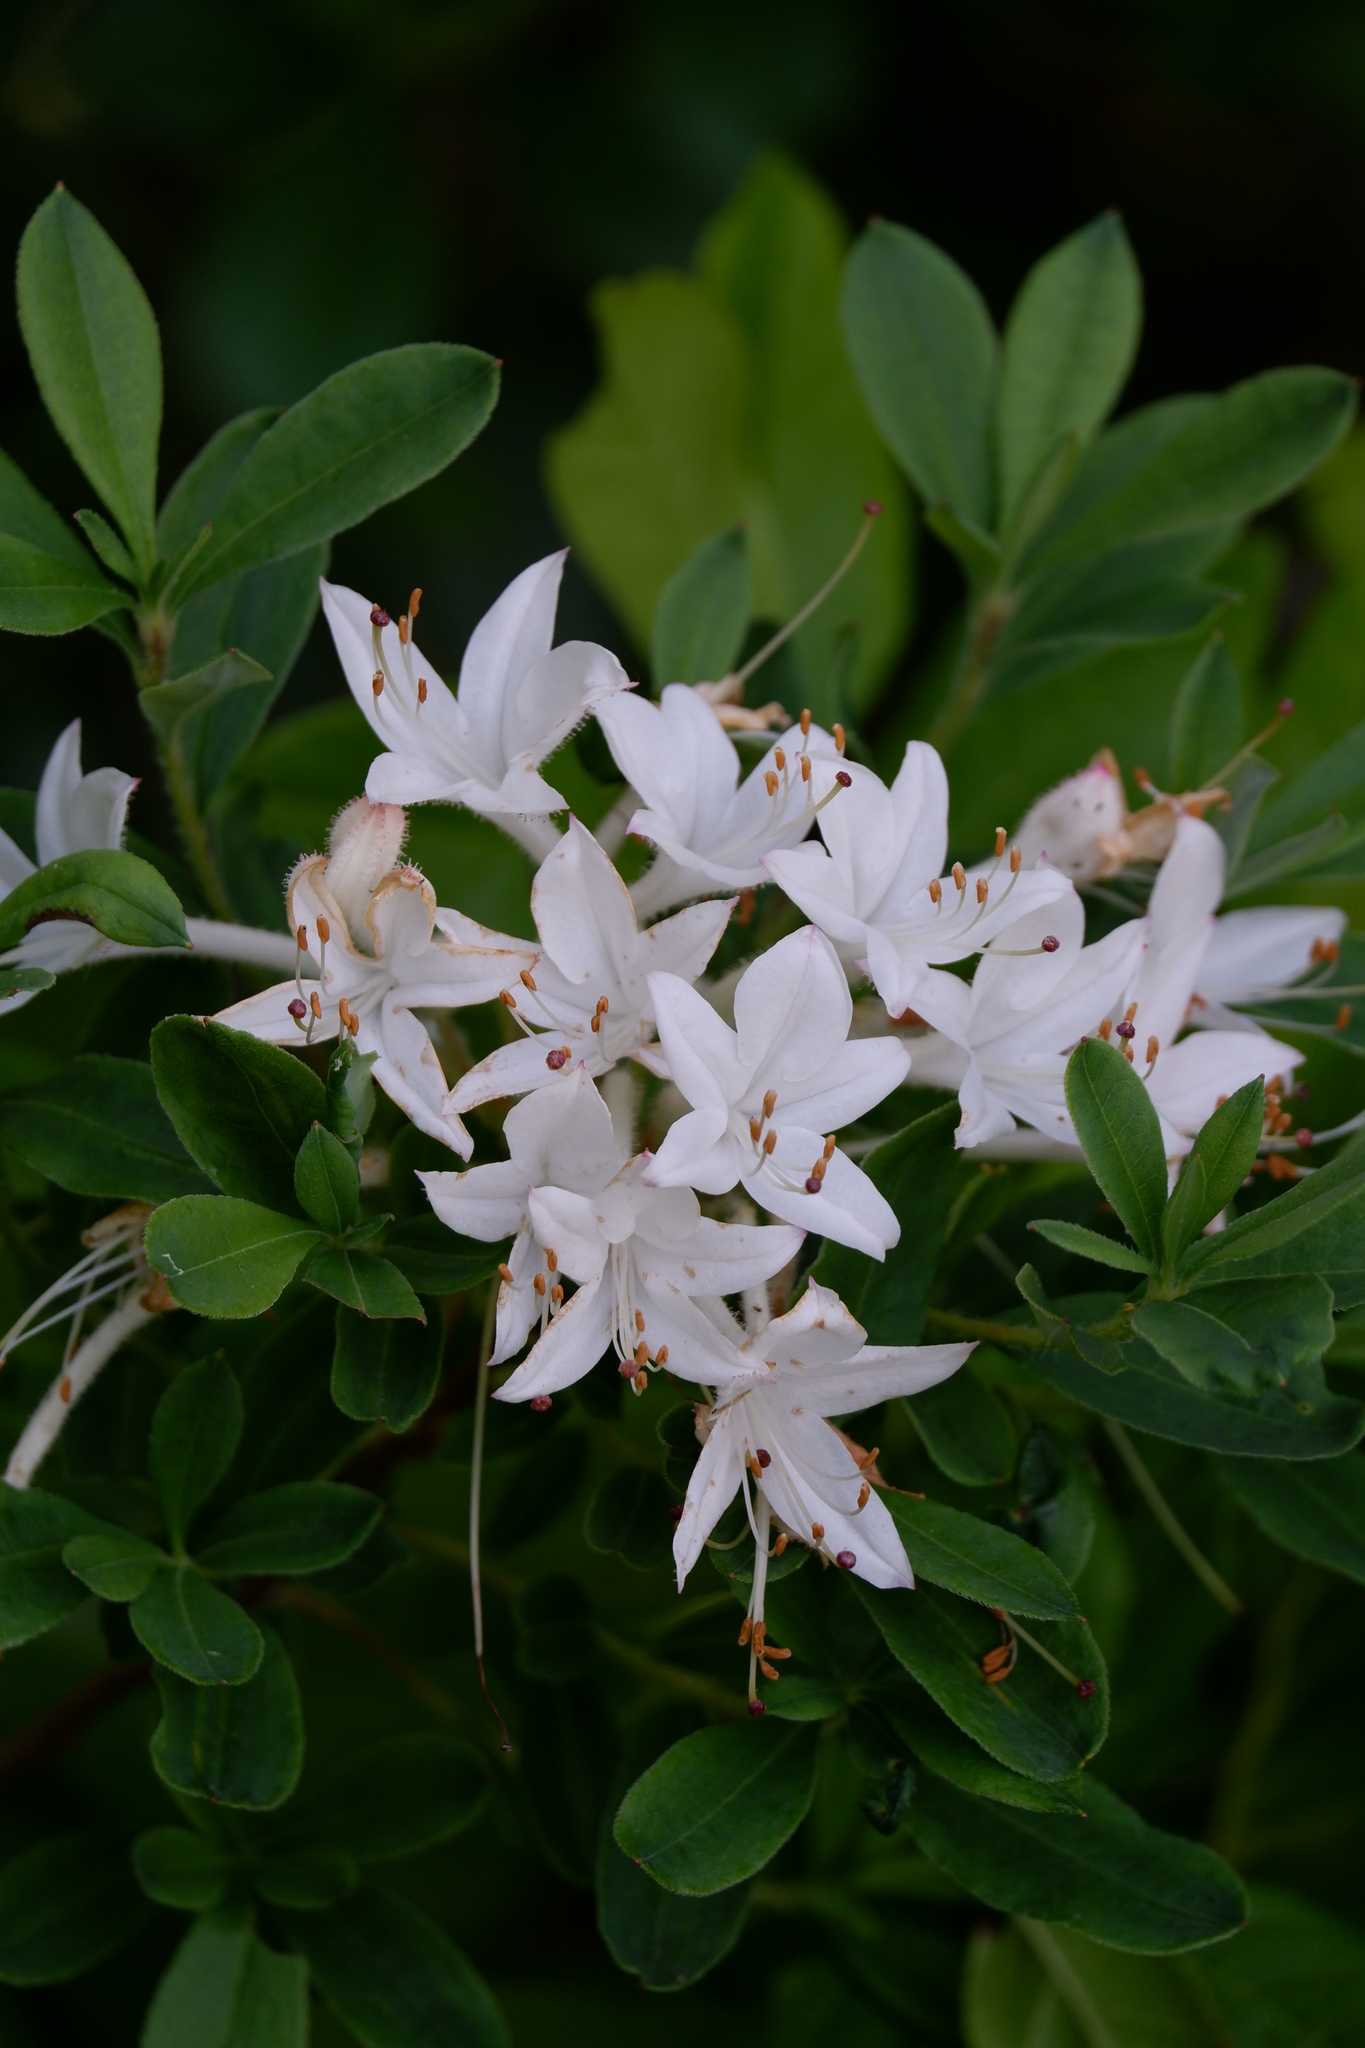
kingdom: Plantae
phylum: Tracheophyta
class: Magnoliopsida
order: Ericales
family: Ericaceae
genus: Rhododendron
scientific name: Rhododendron viscosum
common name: Clammy azalea
